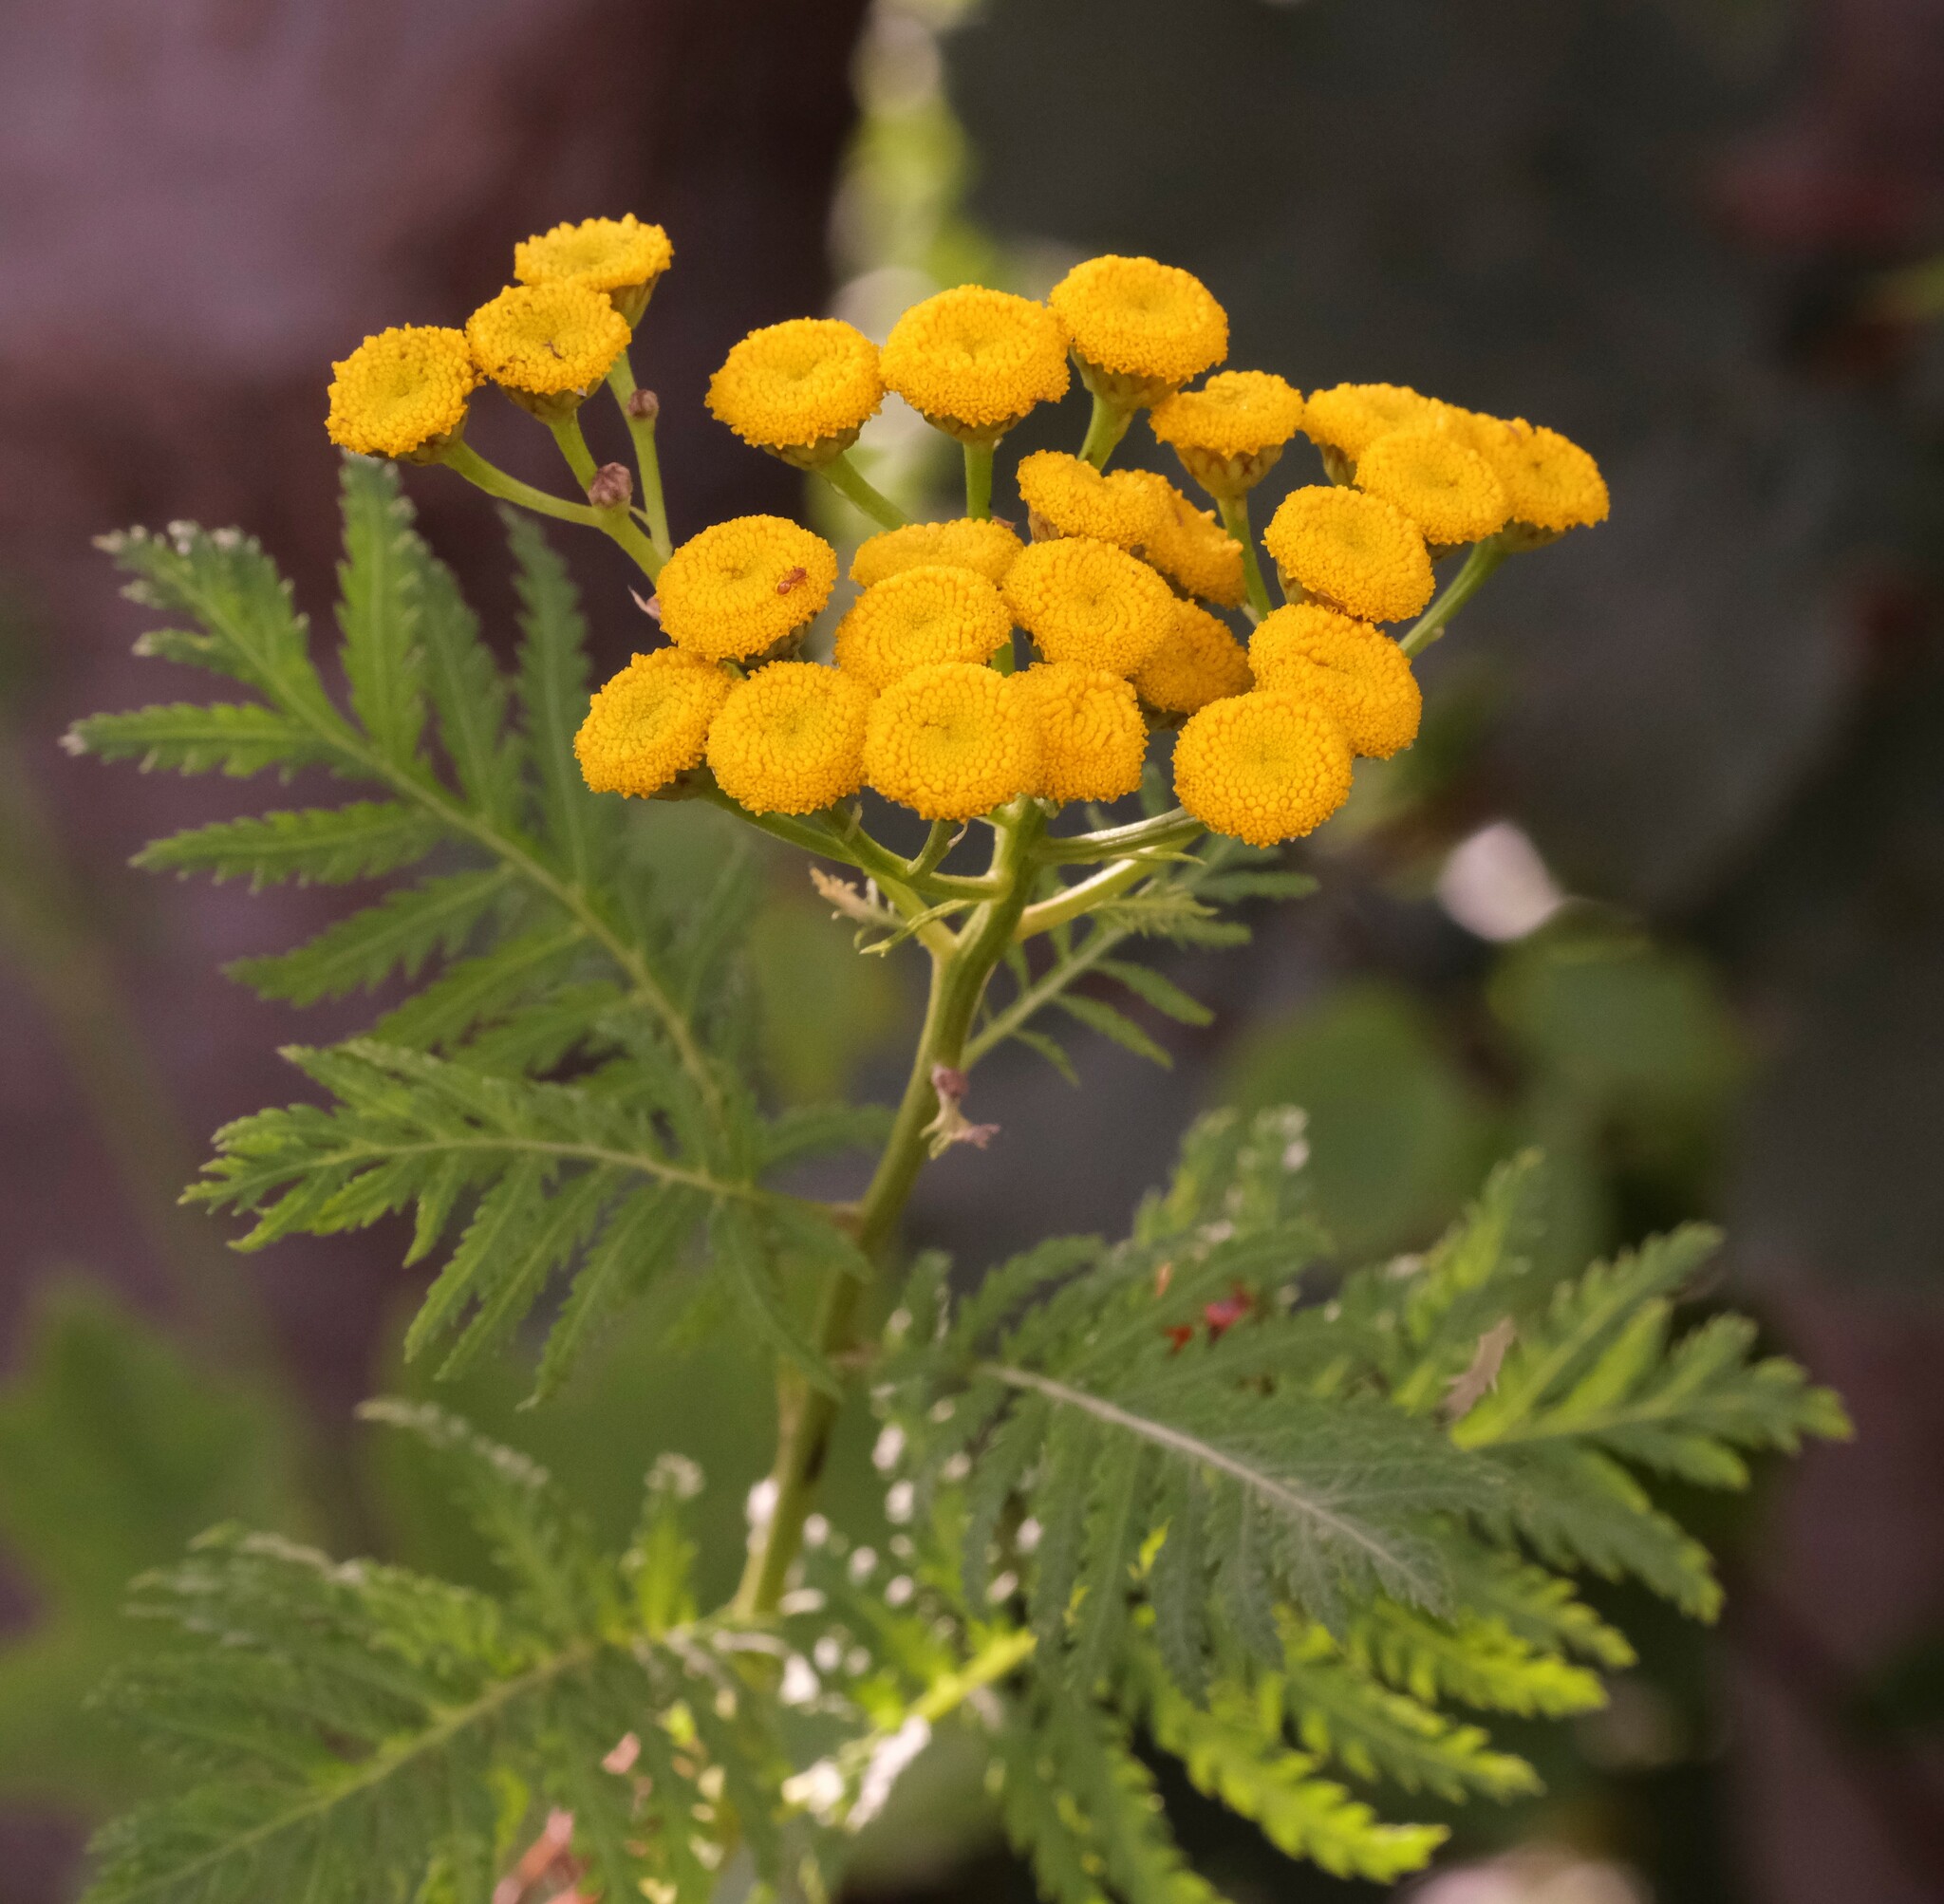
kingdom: Plantae
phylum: Tracheophyta
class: Magnoliopsida
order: Asterales
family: Asteraceae
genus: Tanacetum
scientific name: Tanacetum vulgare
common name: Common tansy
